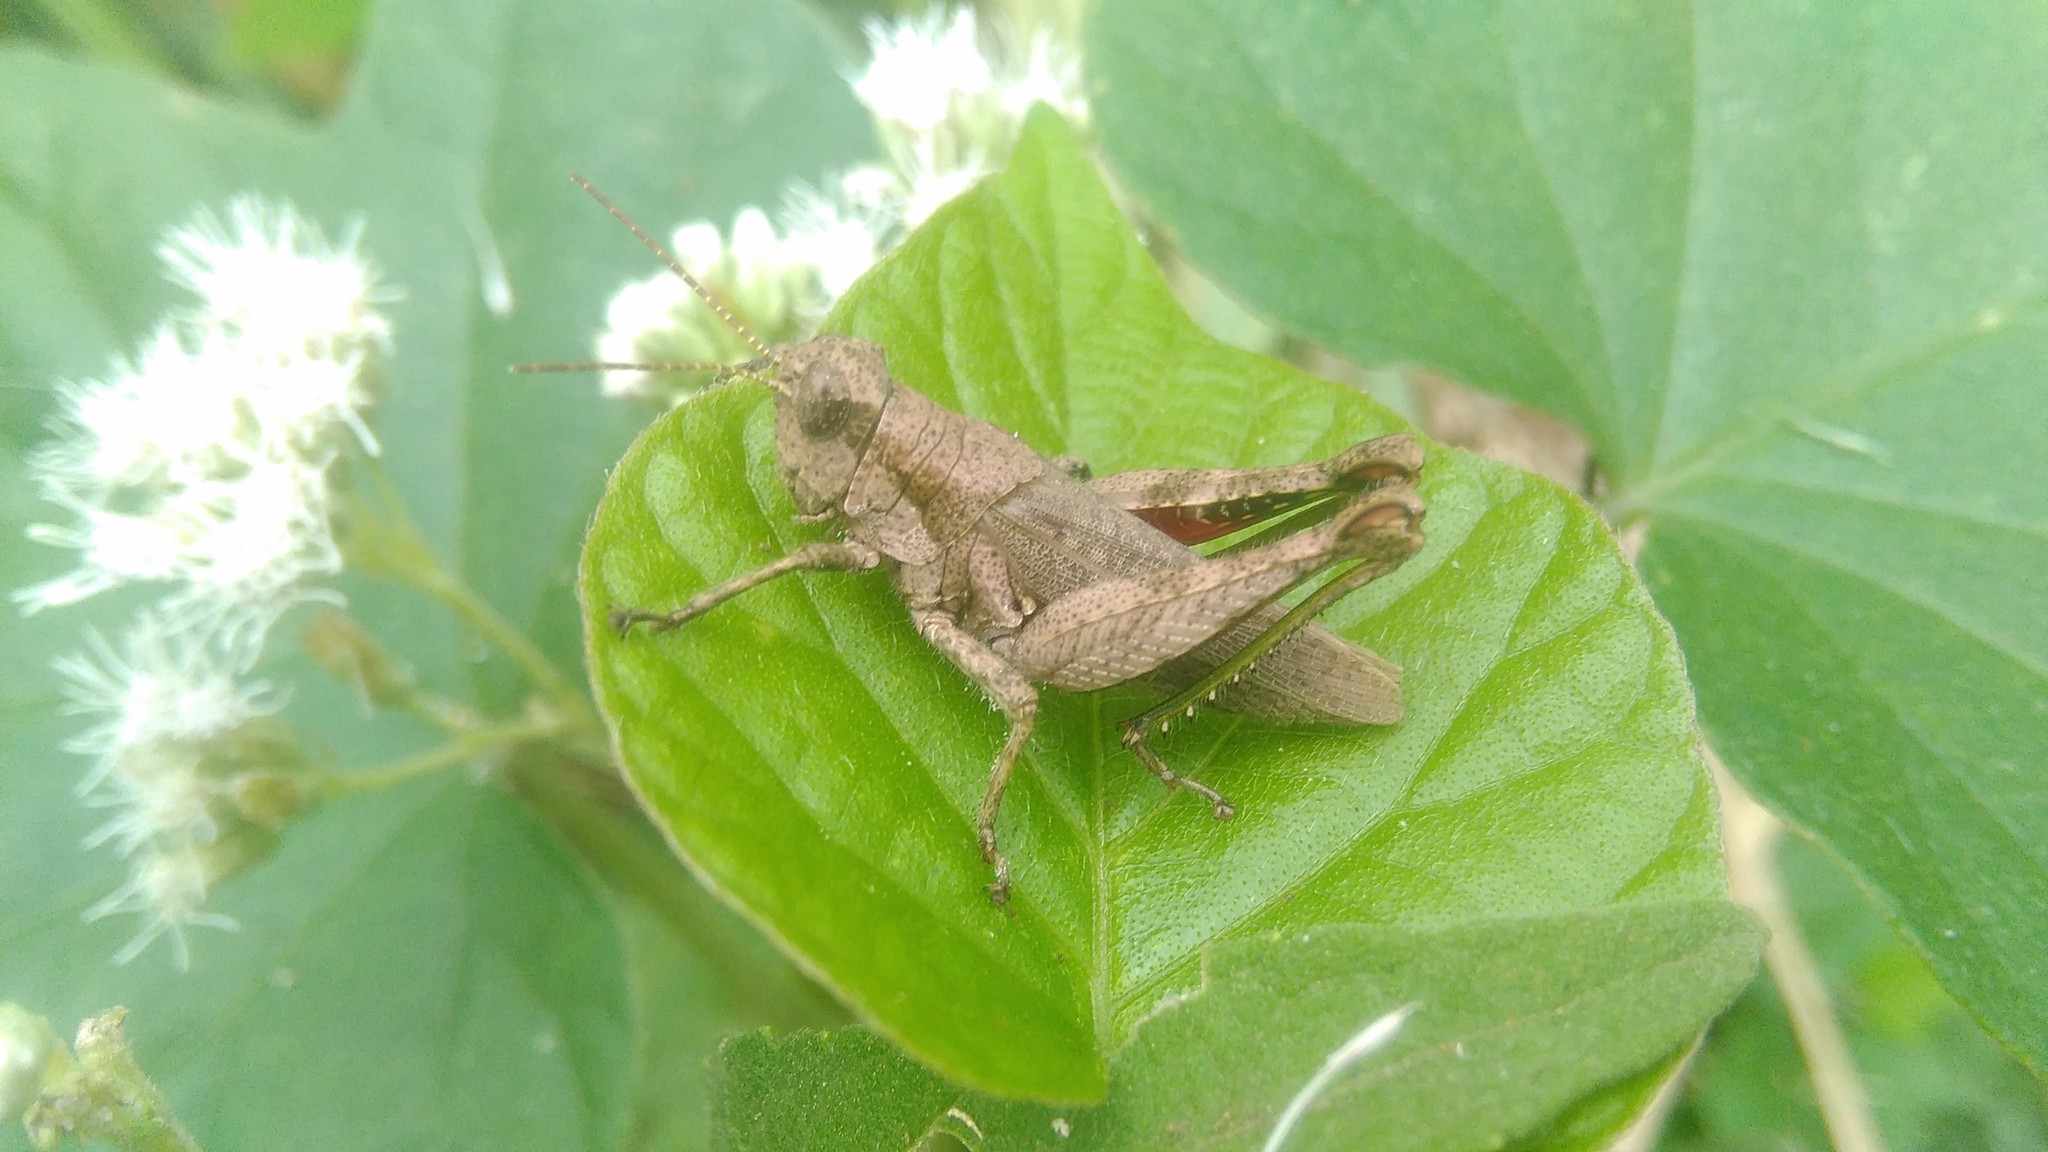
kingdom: Animalia
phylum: Arthropoda
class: Insecta
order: Orthoptera
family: Acrididae
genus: Ronderosia
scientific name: Ronderosia bergii
